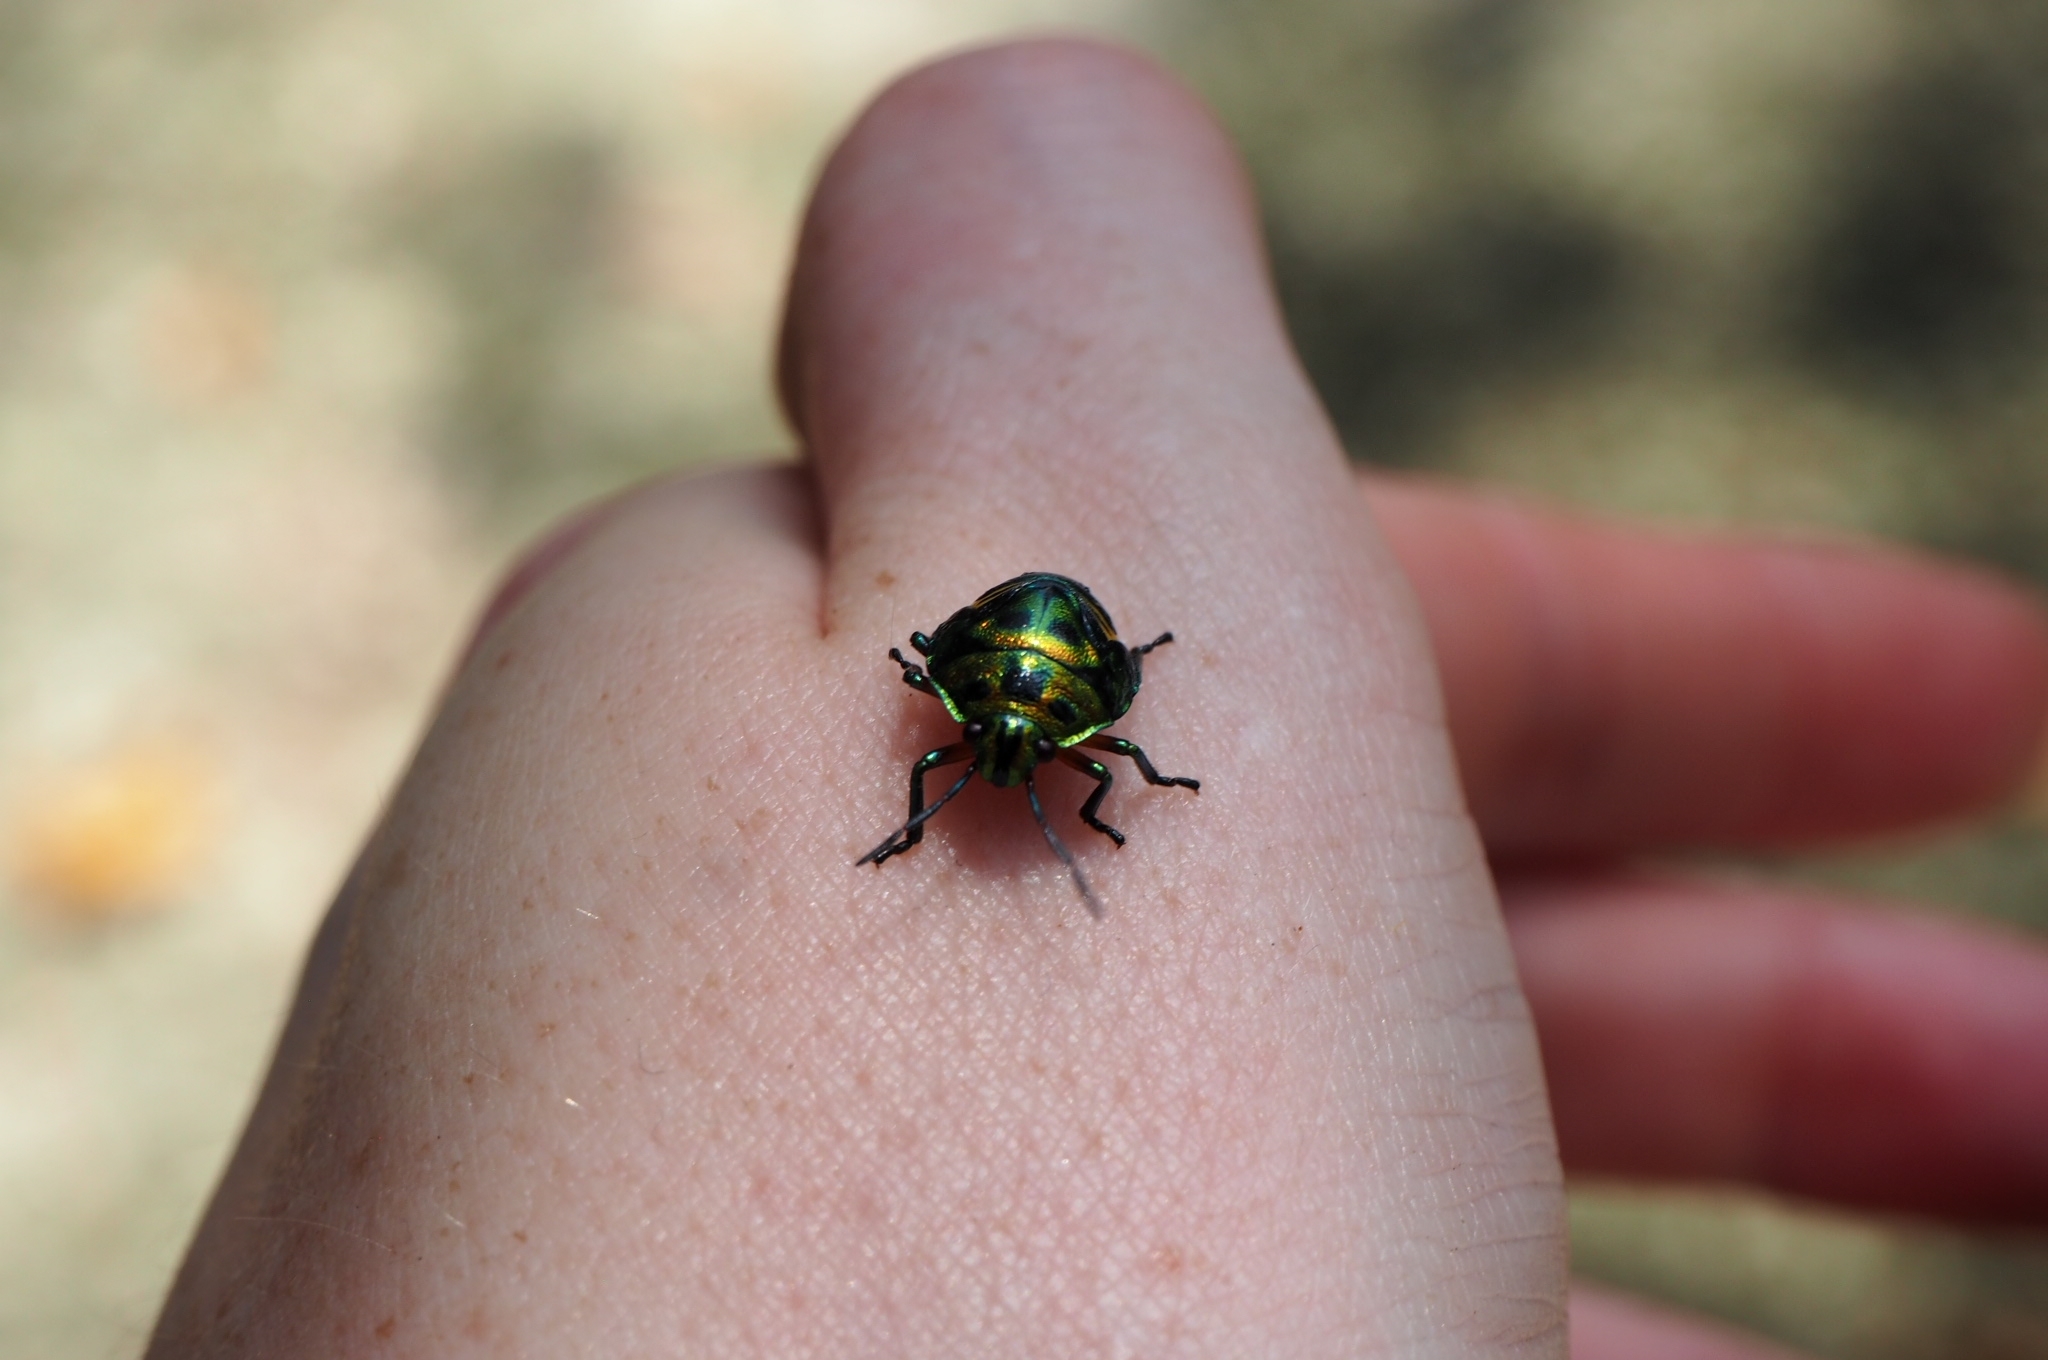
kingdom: Animalia
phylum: Arthropoda
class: Insecta
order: Hemiptera
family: Scutelleridae
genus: Calliphara
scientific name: Calliphara nobilis
